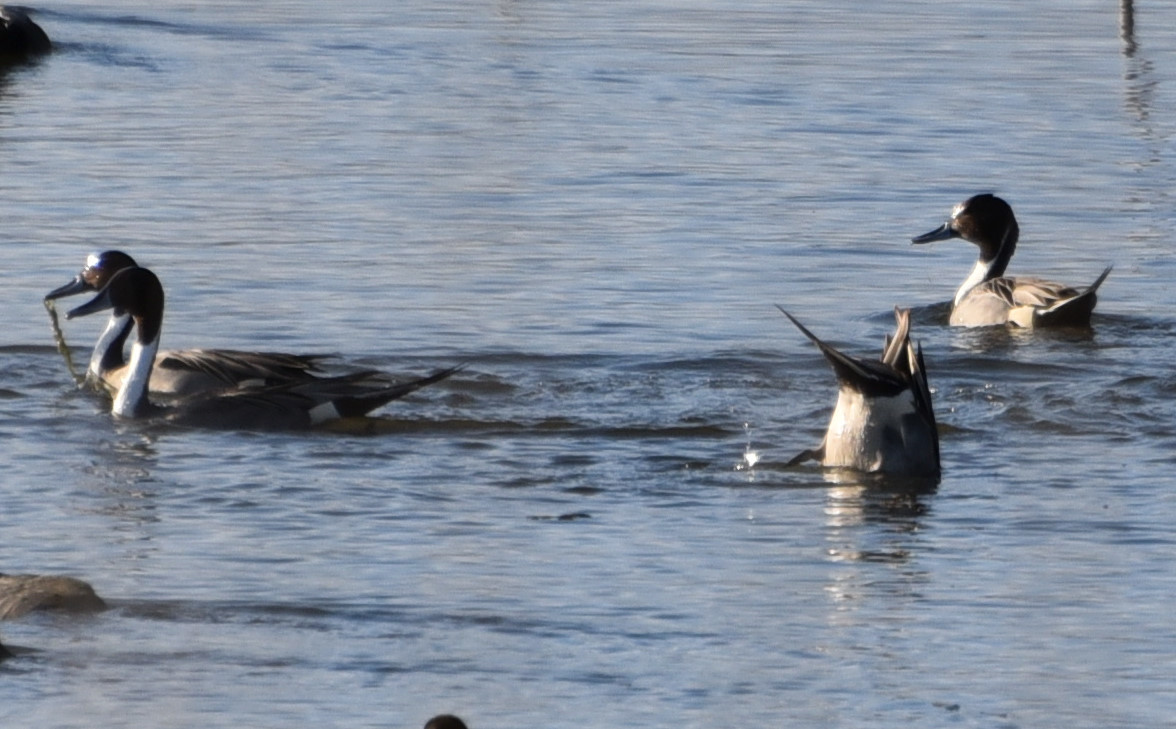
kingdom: Animalia
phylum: Chordata
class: Aves
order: Anseriformes
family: Anatidae
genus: Anas
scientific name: Anas acuta
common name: Northern pintail
